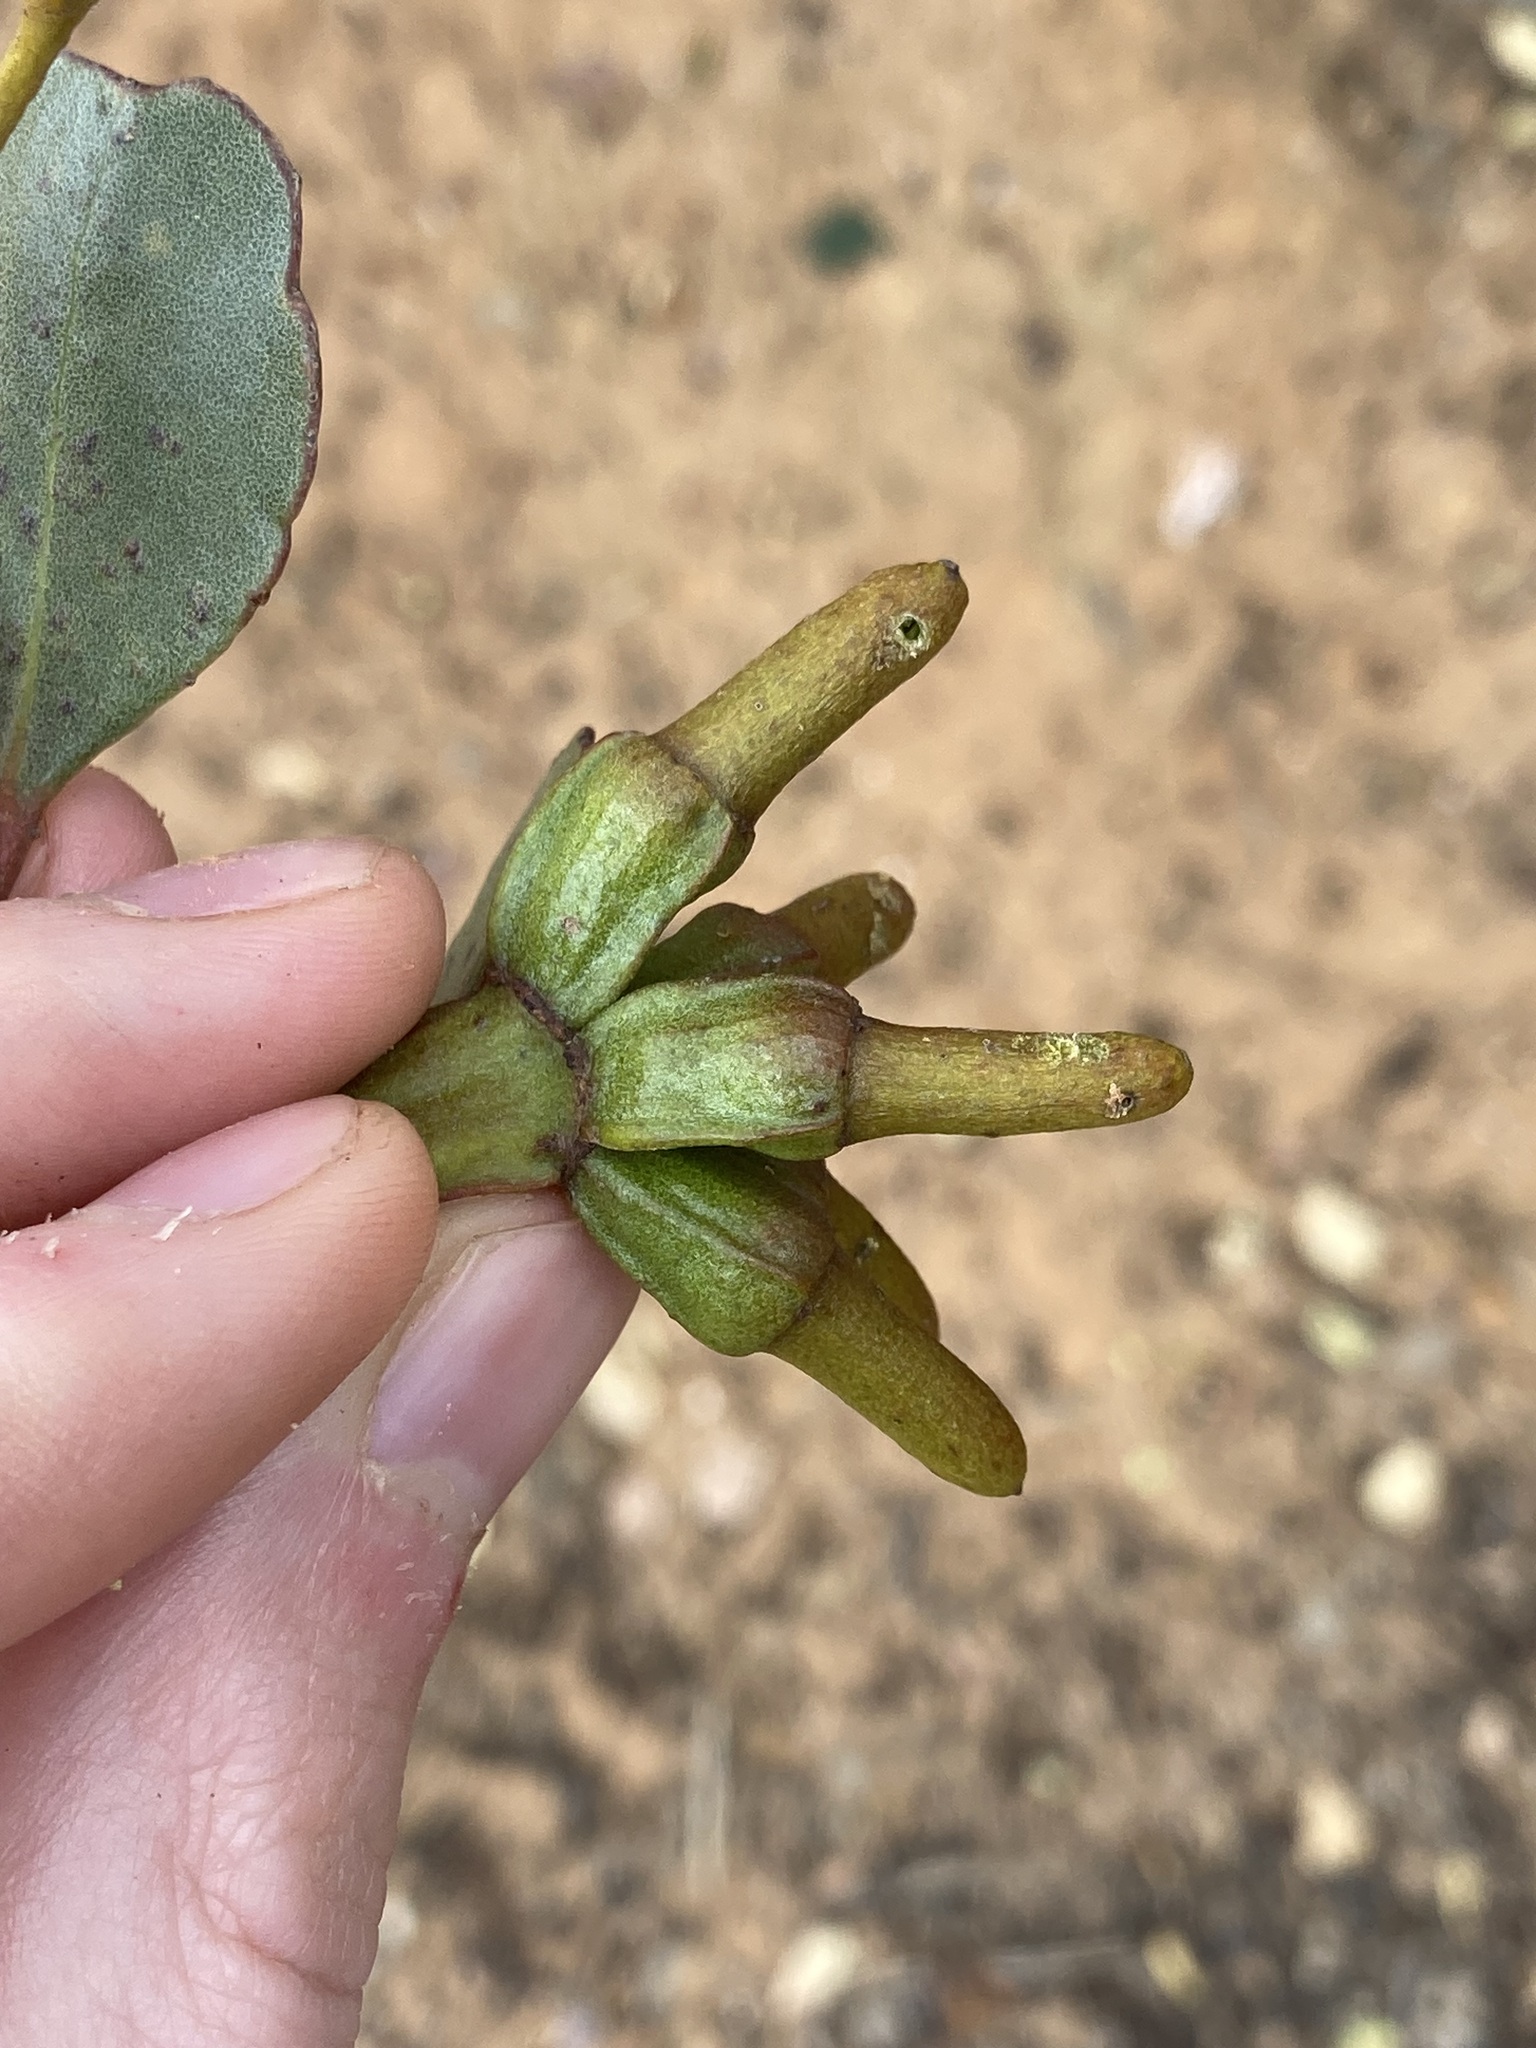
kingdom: Plantae
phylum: Tracheophyta
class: Magnoliopsida
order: Myrtales
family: Myrtaceae
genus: Eucalyptus
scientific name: Eucalyptus platypus
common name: Moort
